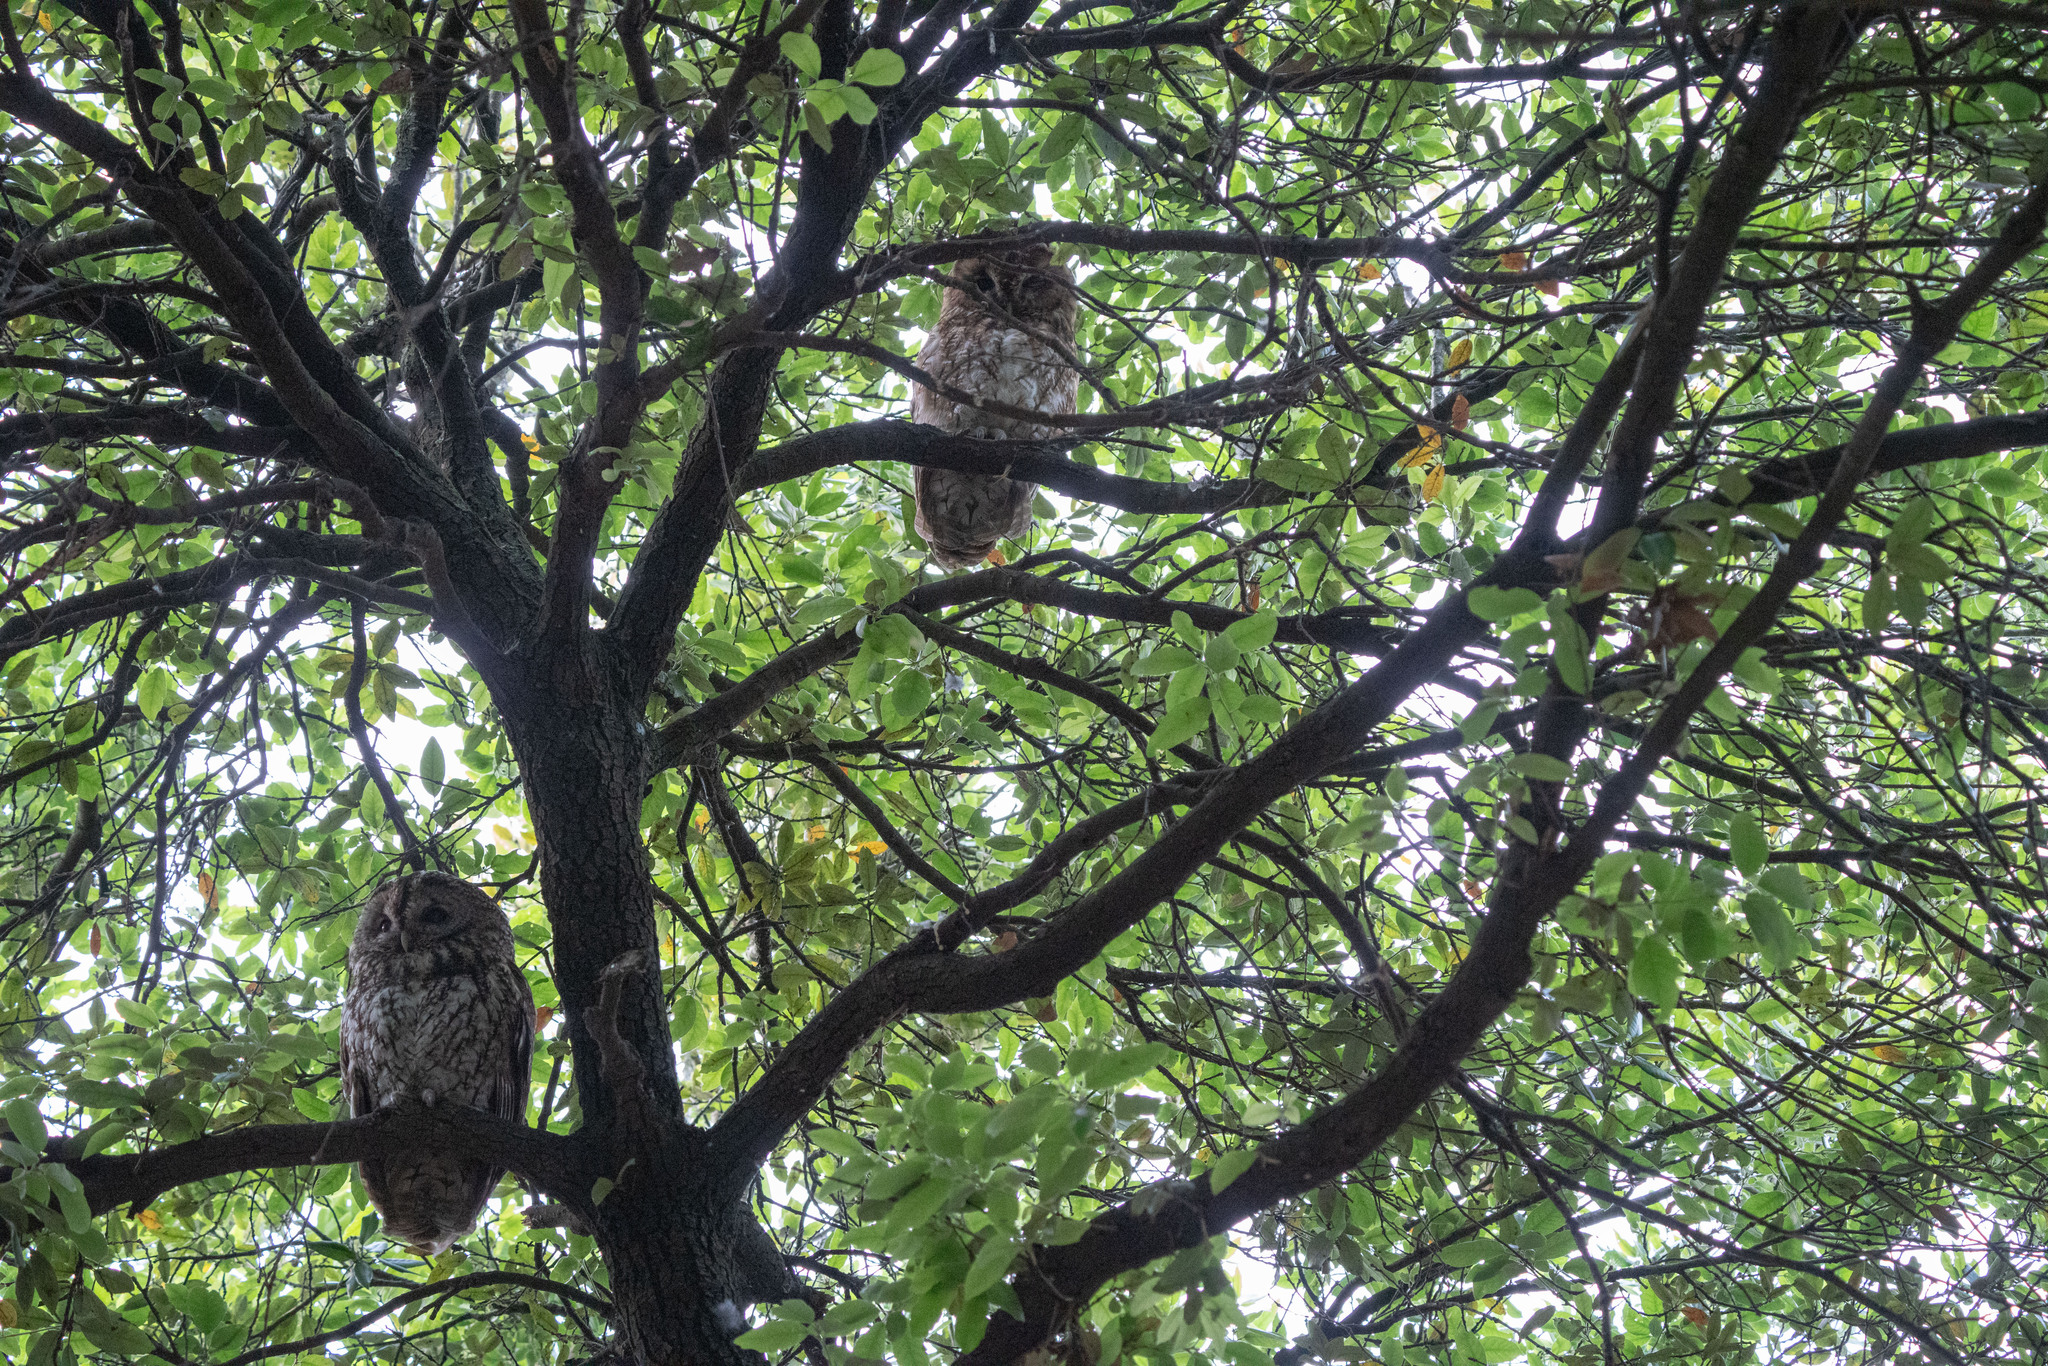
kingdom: Animalia
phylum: Chordata
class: Aves
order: Strigiformes
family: Strigidae
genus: Strix
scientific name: Strix aluco
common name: Tawny owl
